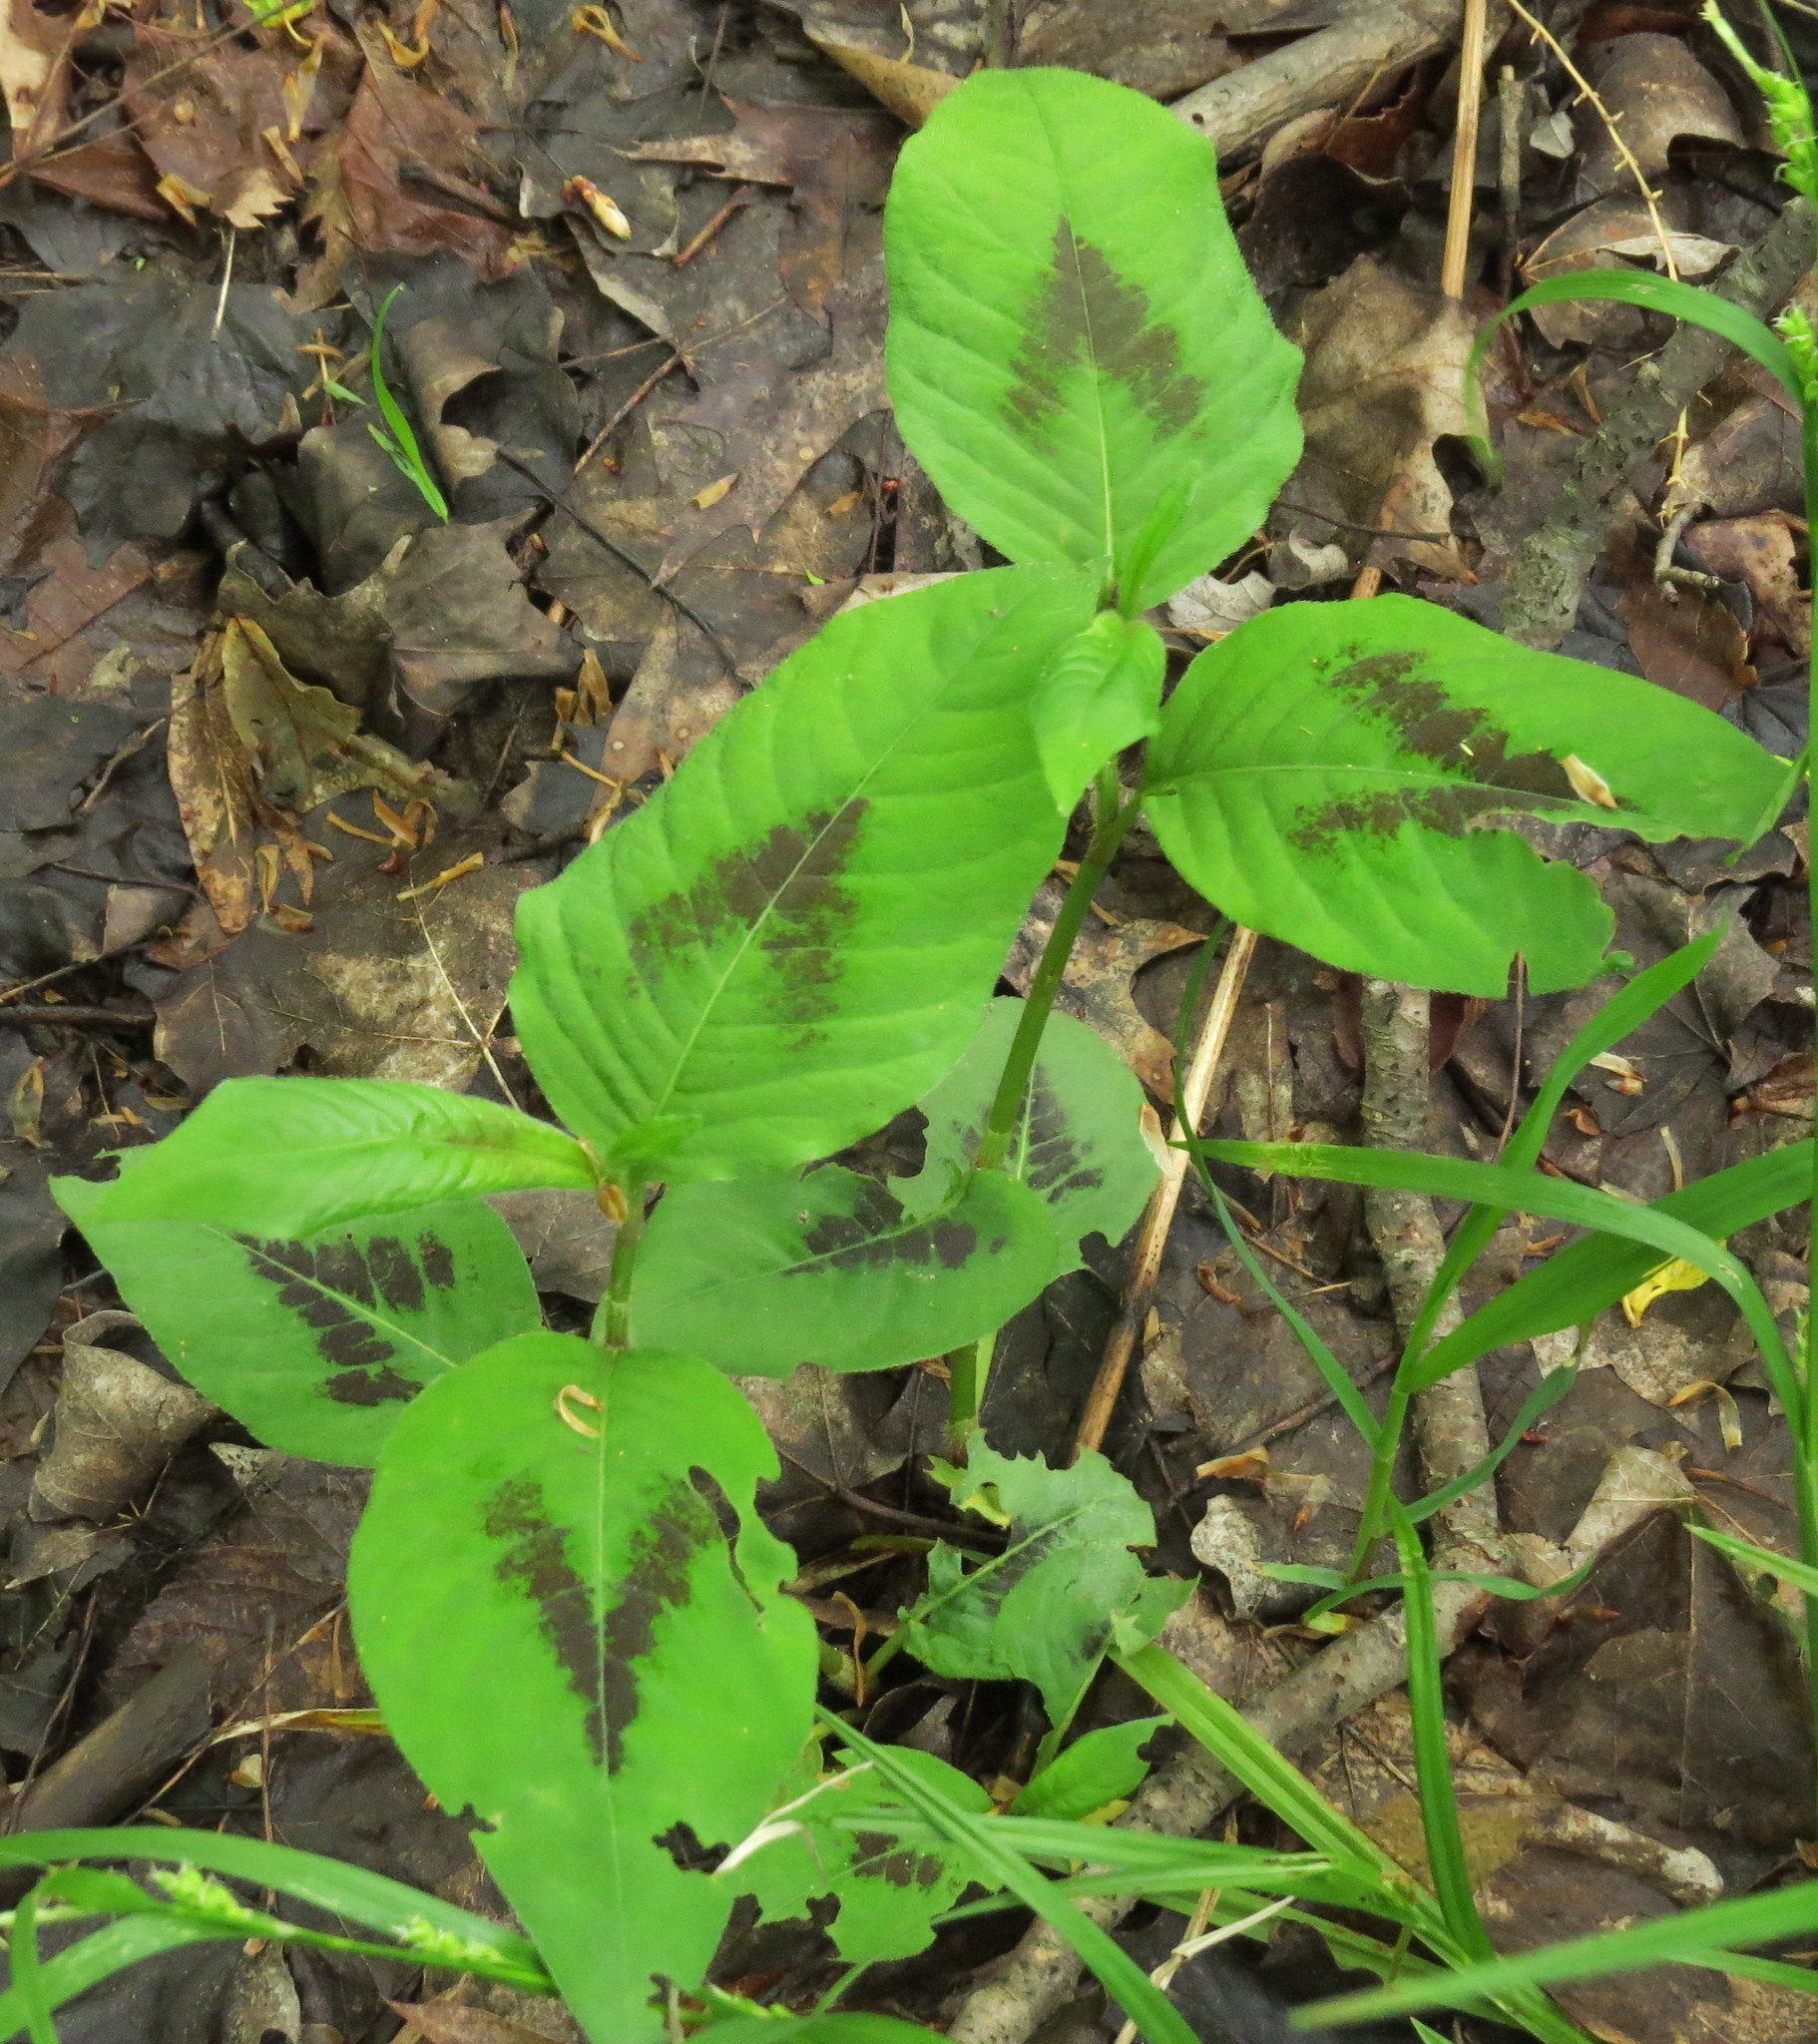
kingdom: Plantae
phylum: Tracheophyta
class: Magnoliopsida
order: Caryophyllales
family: Polygonaceae
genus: Persicaria
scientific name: Persicaria virginiana
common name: Jumpseed
